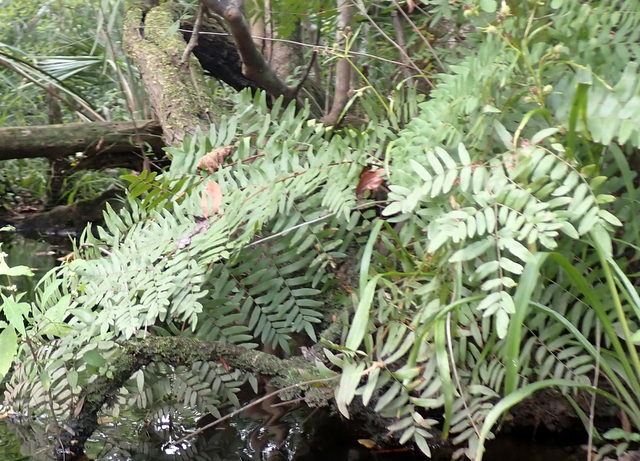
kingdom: Plantae
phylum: Tracheophyta
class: Polypodiopsida
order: Osmundales
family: Osmundaceae
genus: Osmunda
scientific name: Osmunda spectabilis
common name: American royal fern
